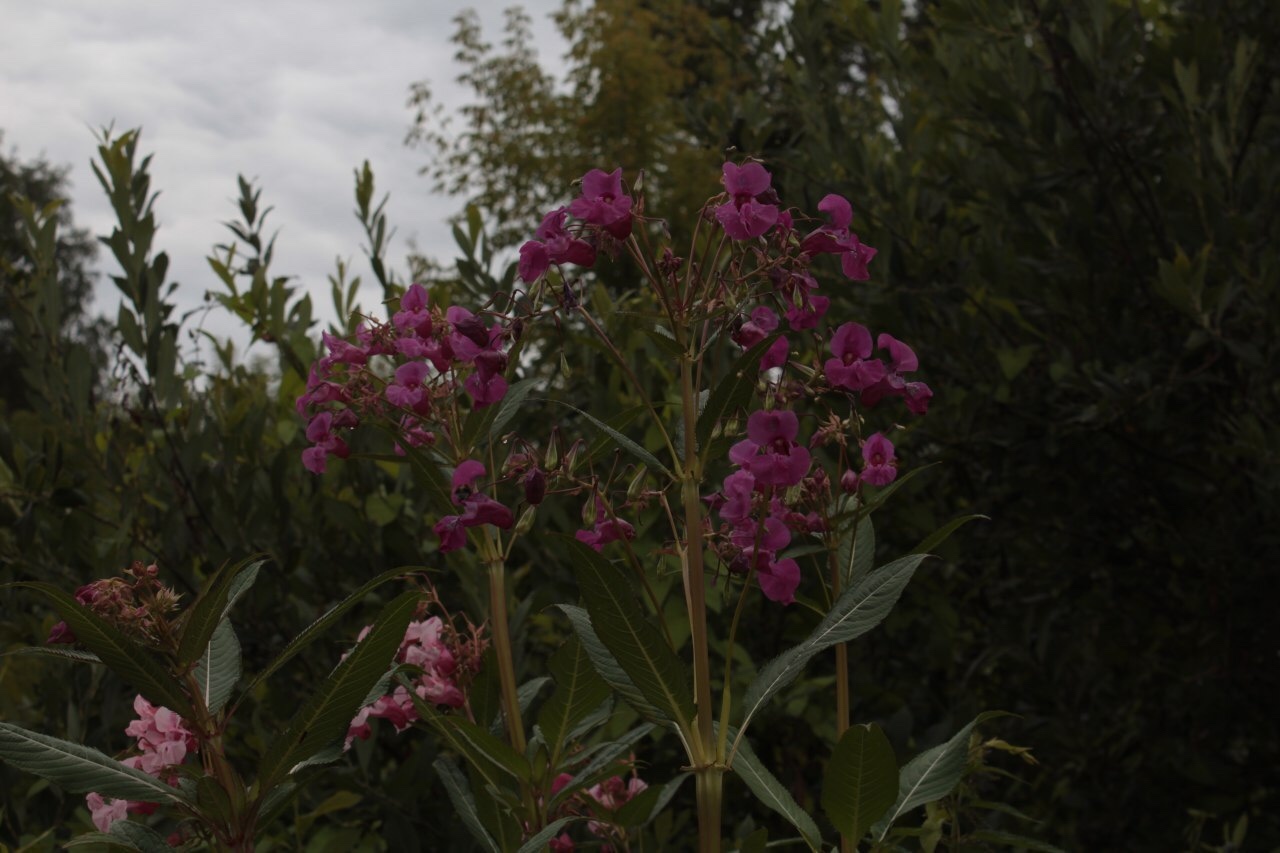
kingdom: Plantae
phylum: Tracheophyta
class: Magnoliopsida
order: Ericales
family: Balsaminaceae
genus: Impatiens
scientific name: Impatiens glandulifera
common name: Himalayan balsam
